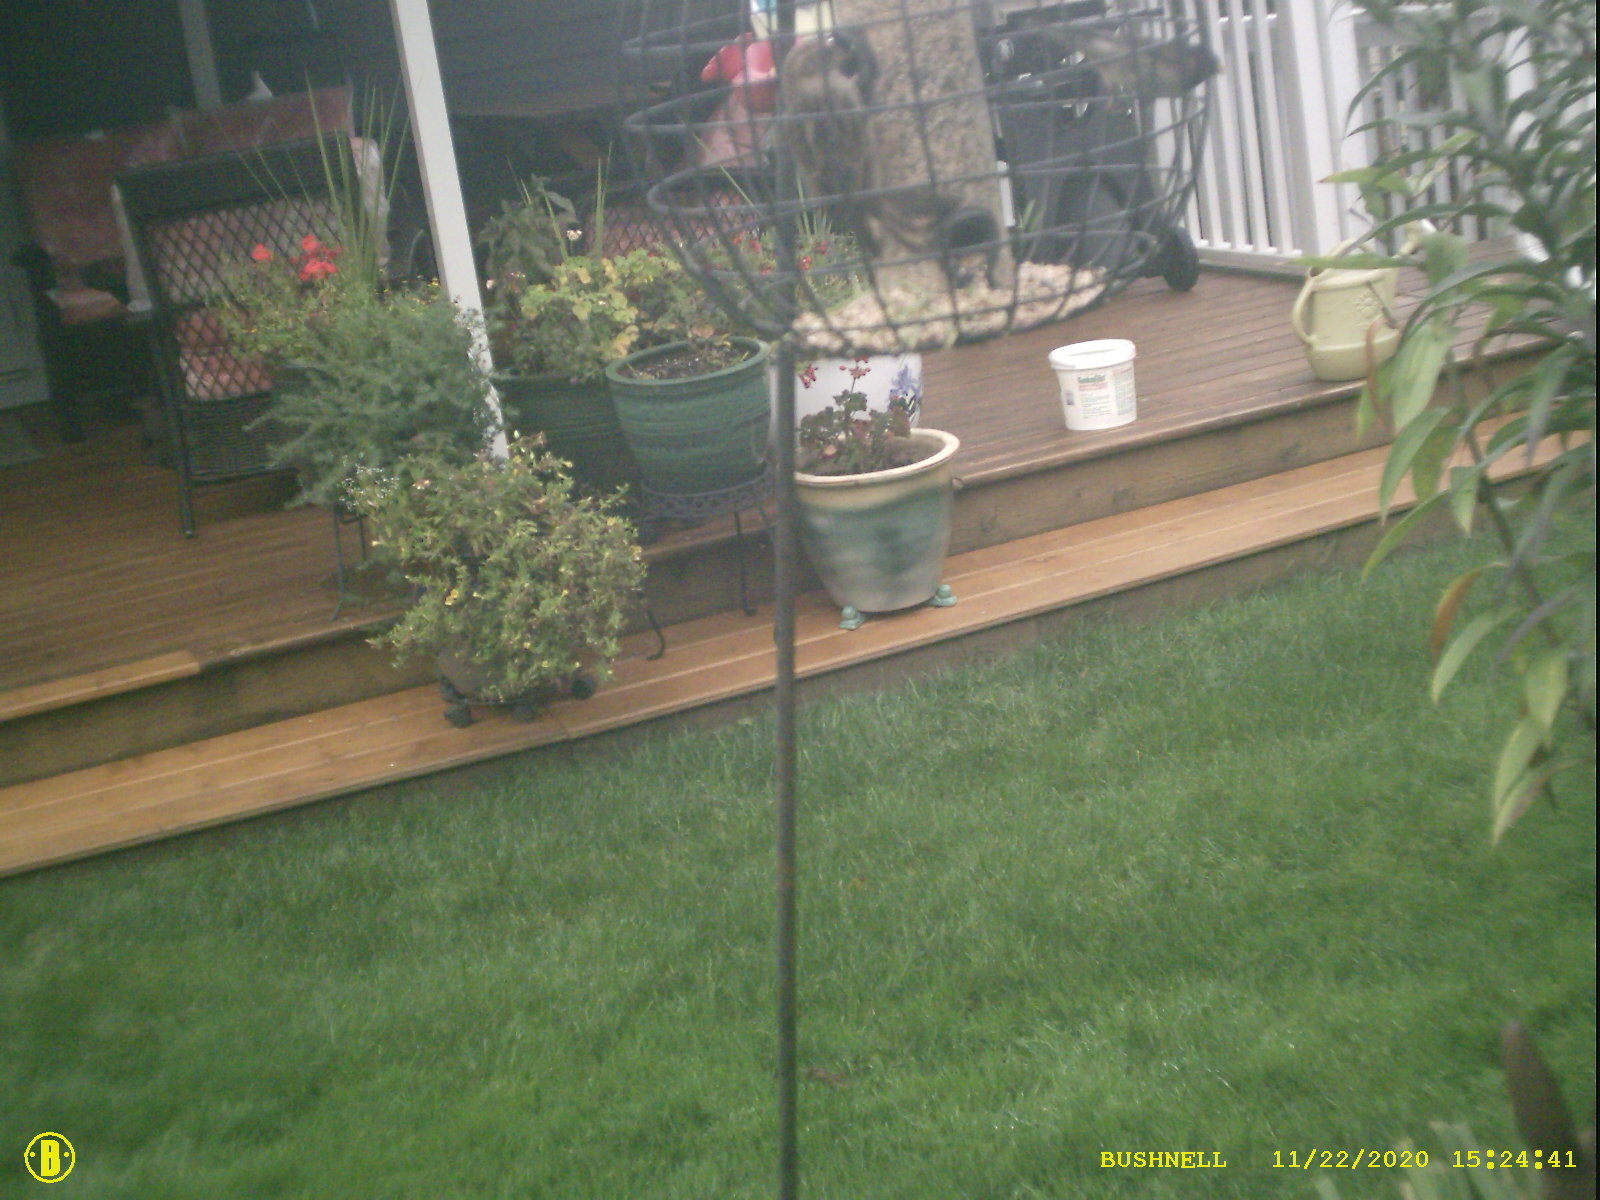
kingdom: Animalia
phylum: Chordata
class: Aves
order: Passeriformes
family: Passeridae
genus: Passer
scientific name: Passer domesticus
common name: House sparrow
